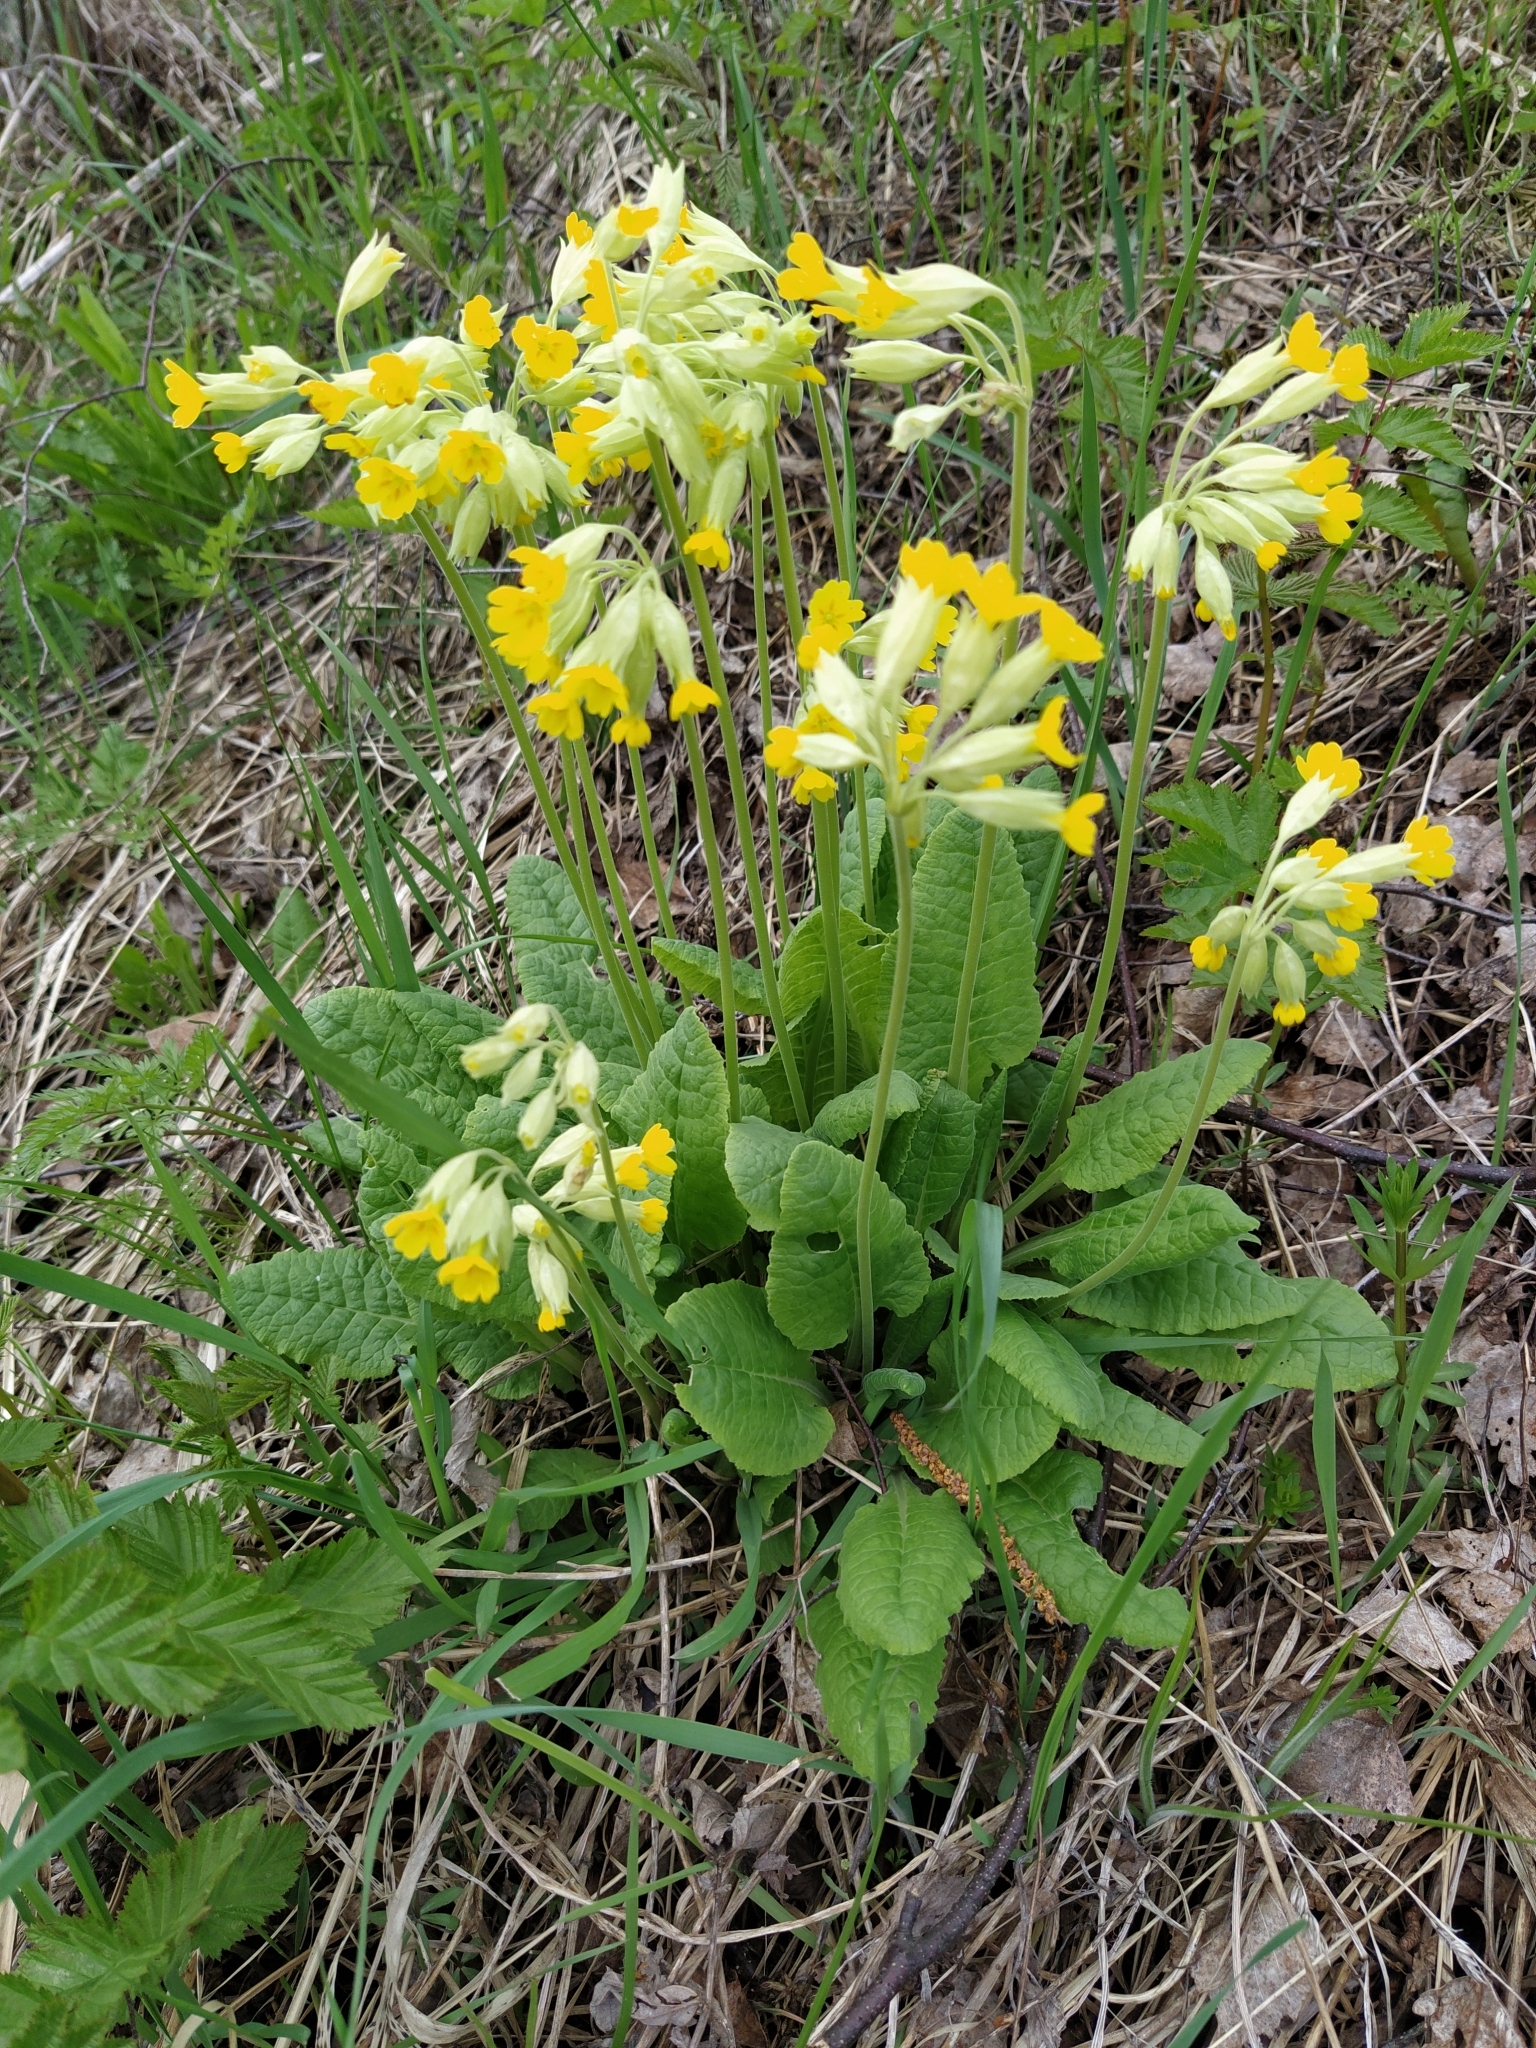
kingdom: Plantae
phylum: Tracheophyta
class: Magnoliopsida
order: Ericales
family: Primulaceae
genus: Primula
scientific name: Primula veris
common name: Cowslip
